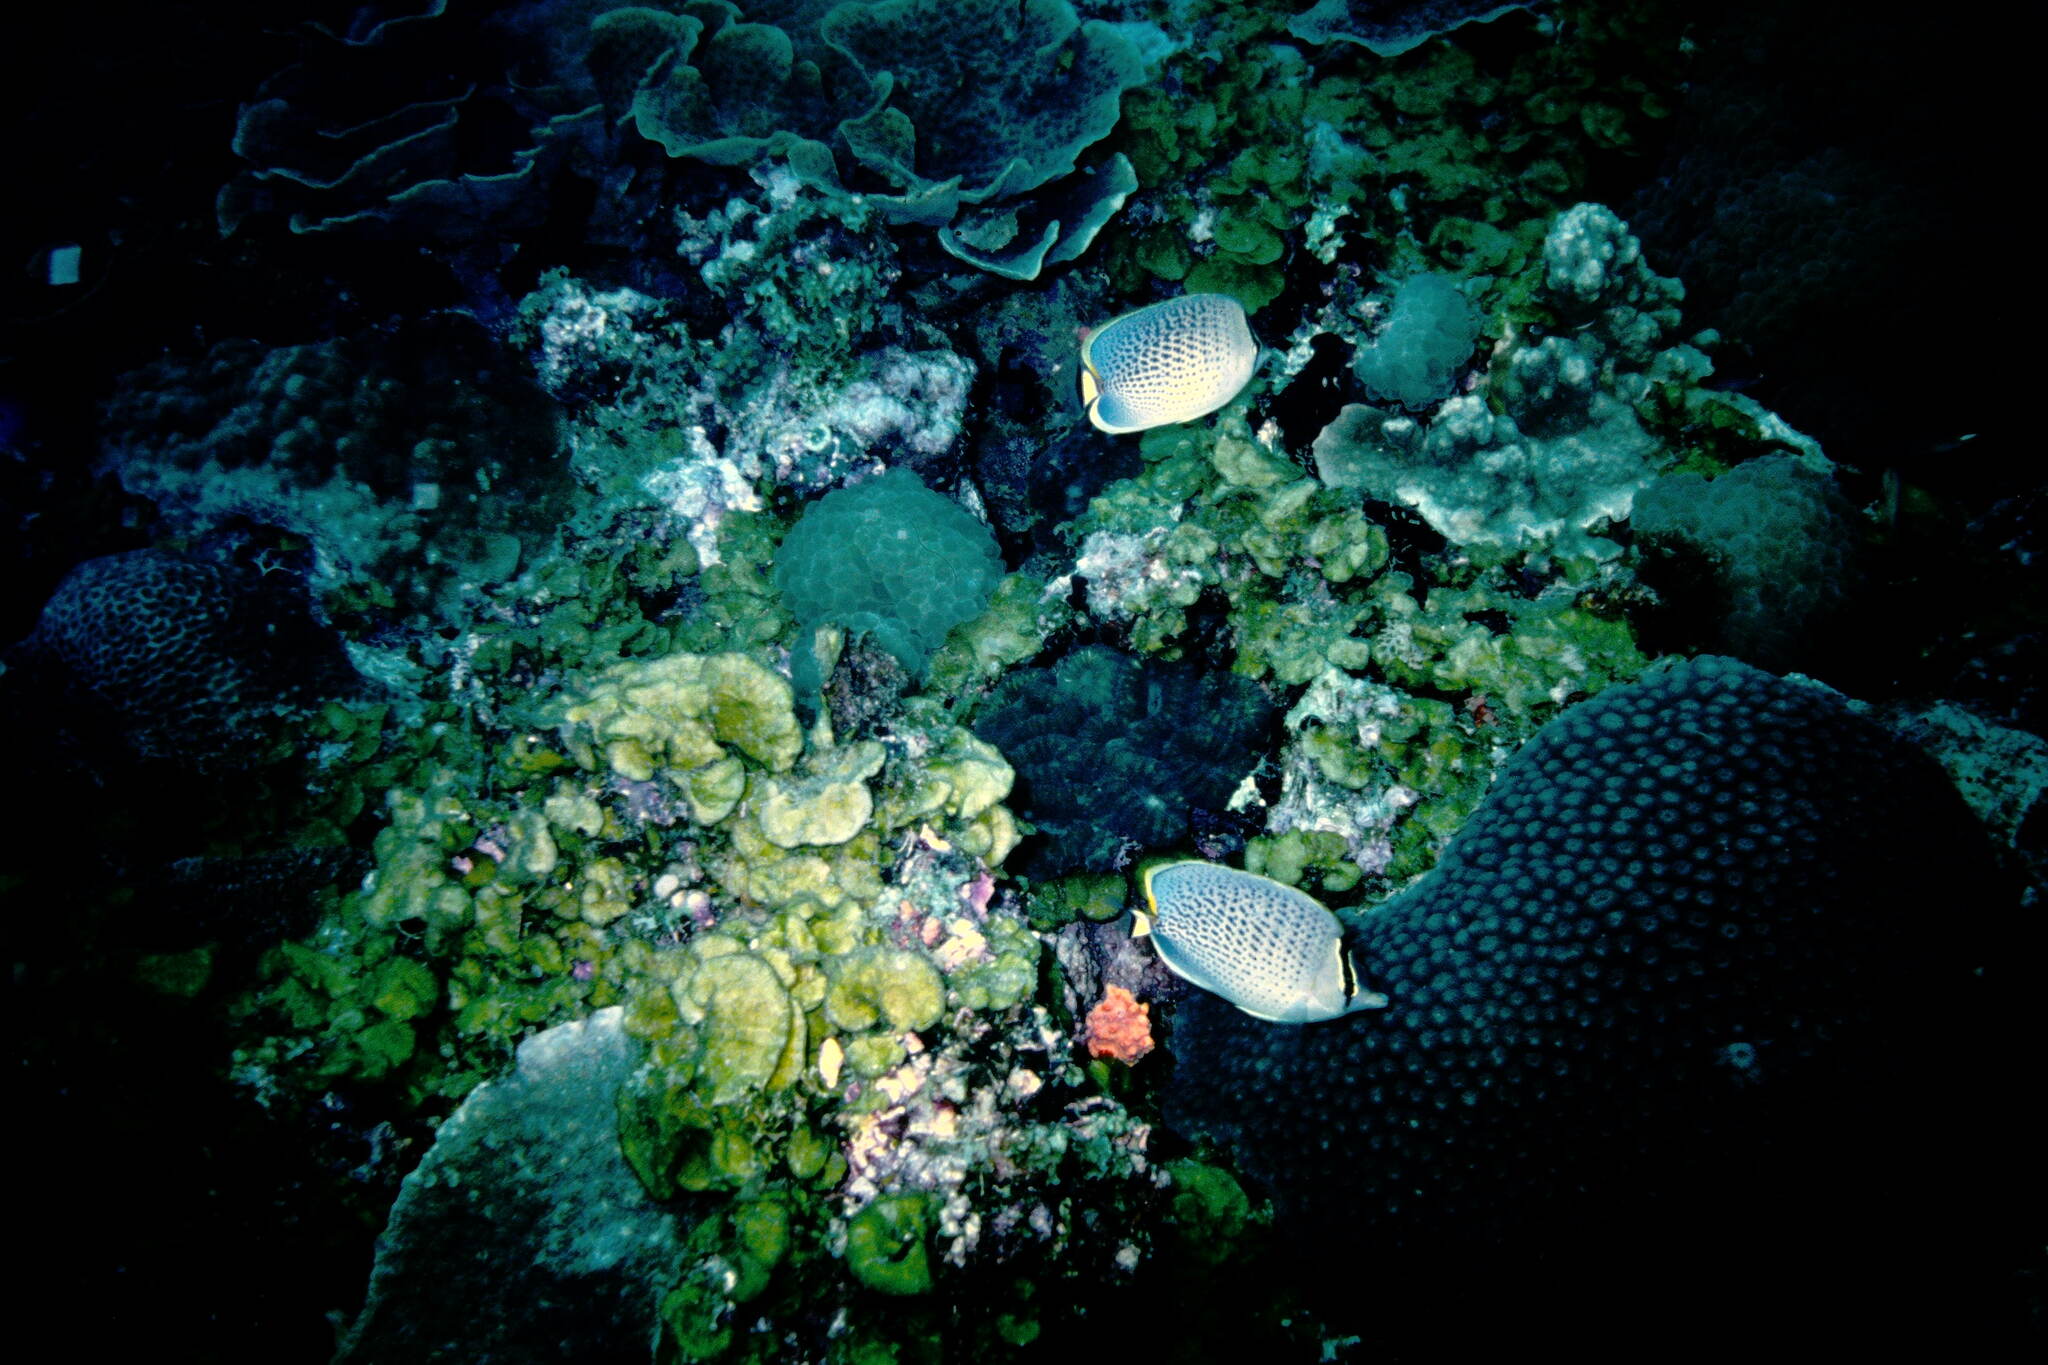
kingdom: Animalia
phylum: Chordata
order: Perciformes
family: Chaetodontidae
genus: Chaetodon
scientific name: Chaetodon guttatissimus
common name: Spotted butterflyfish
